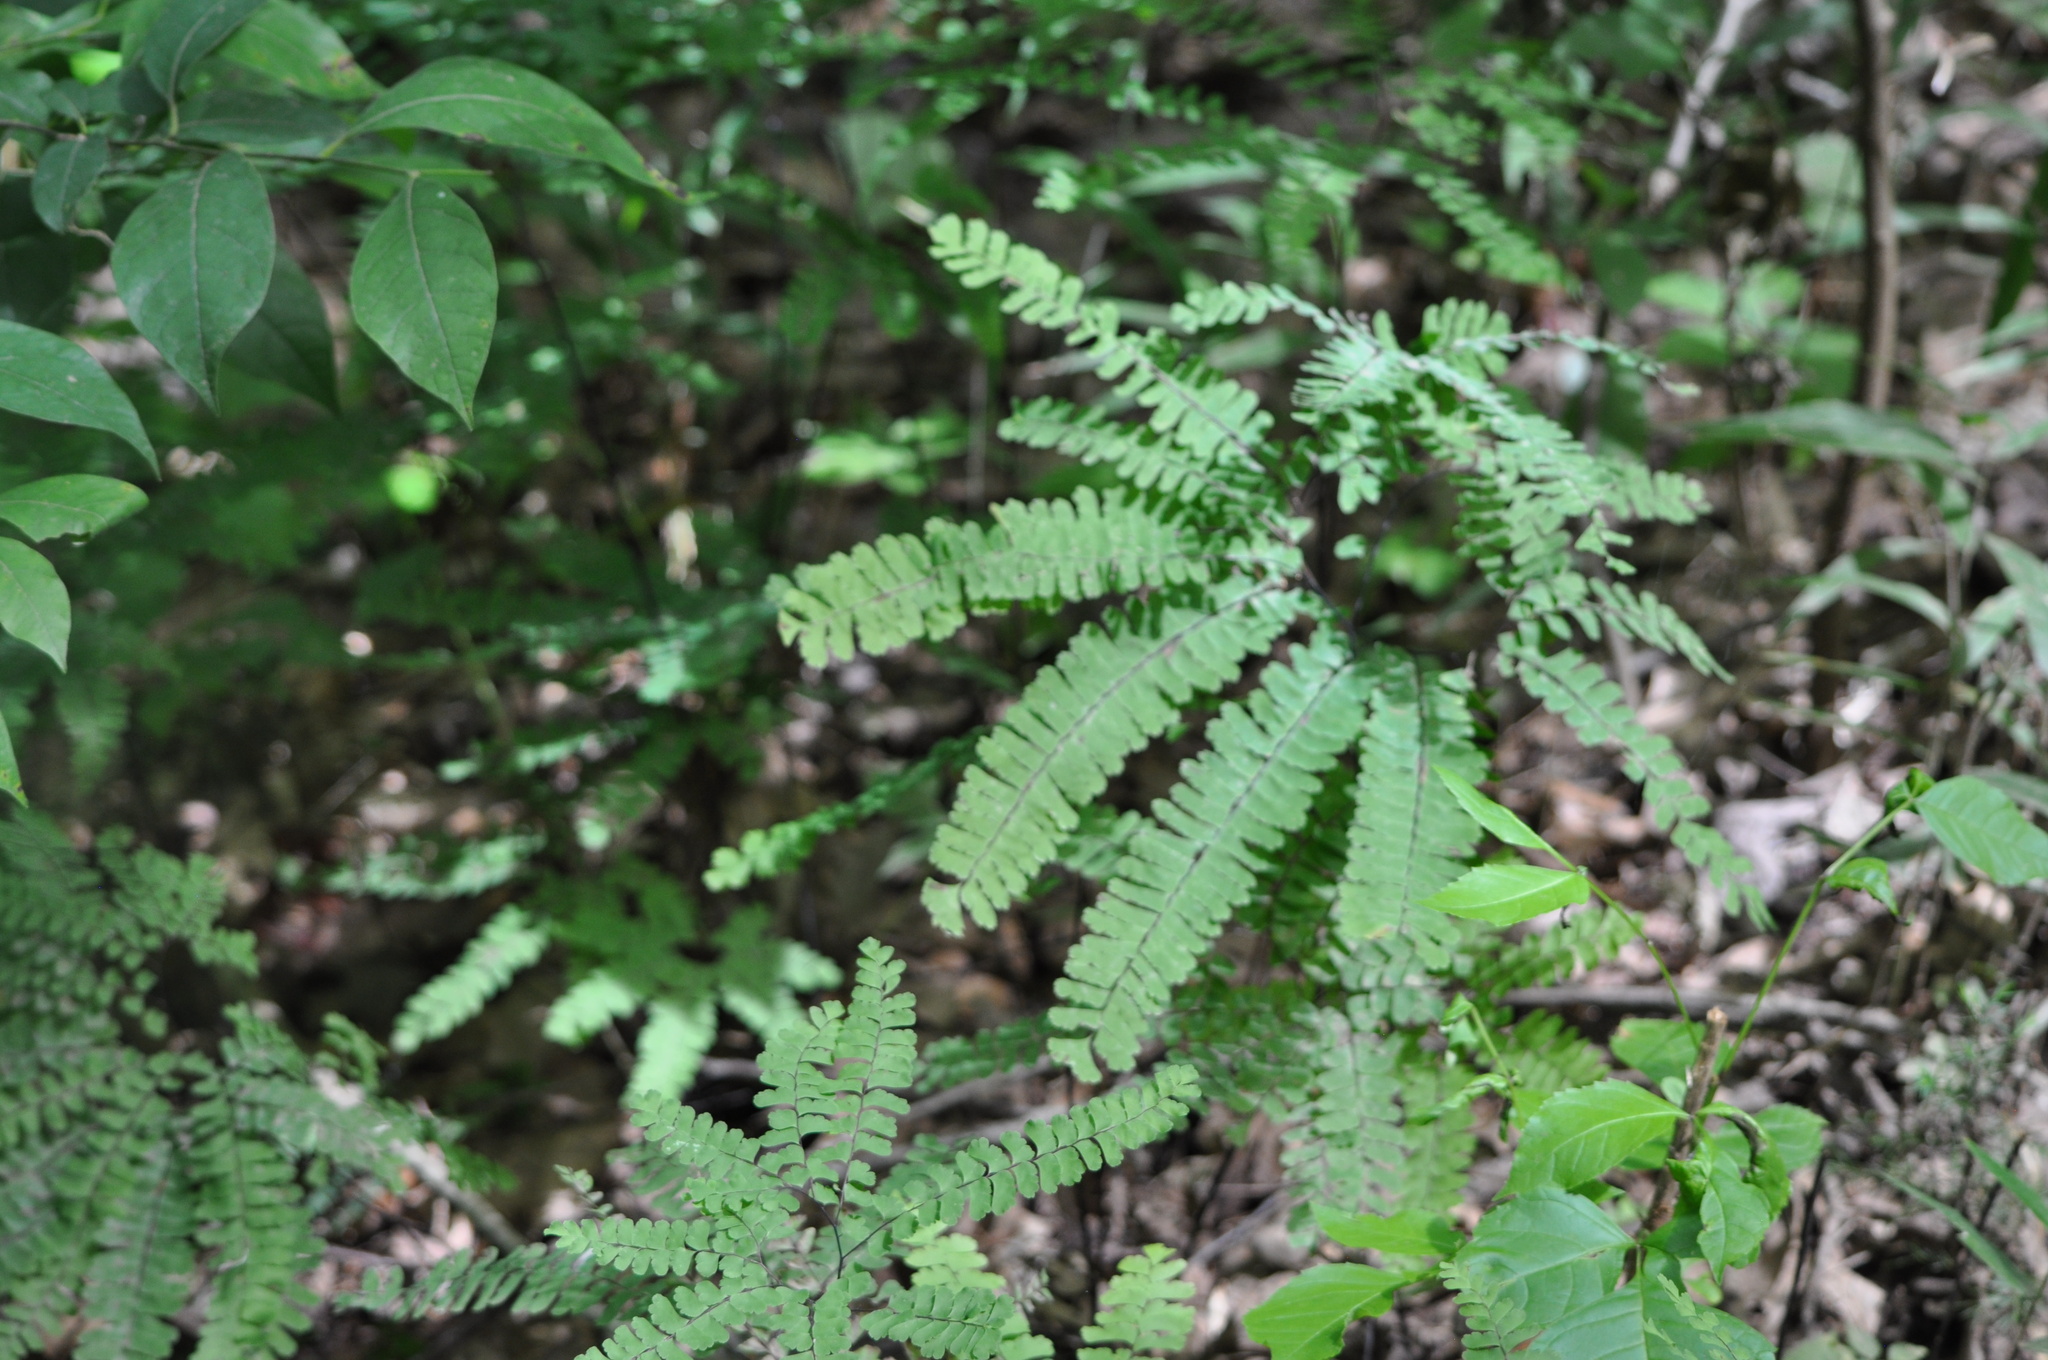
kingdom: Plantae
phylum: Tracheophyta
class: Polypodiopsida
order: Polypodiales
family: Pteridaceae
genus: Adiantum
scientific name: Adiantum pedatum
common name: Five-finger fern
